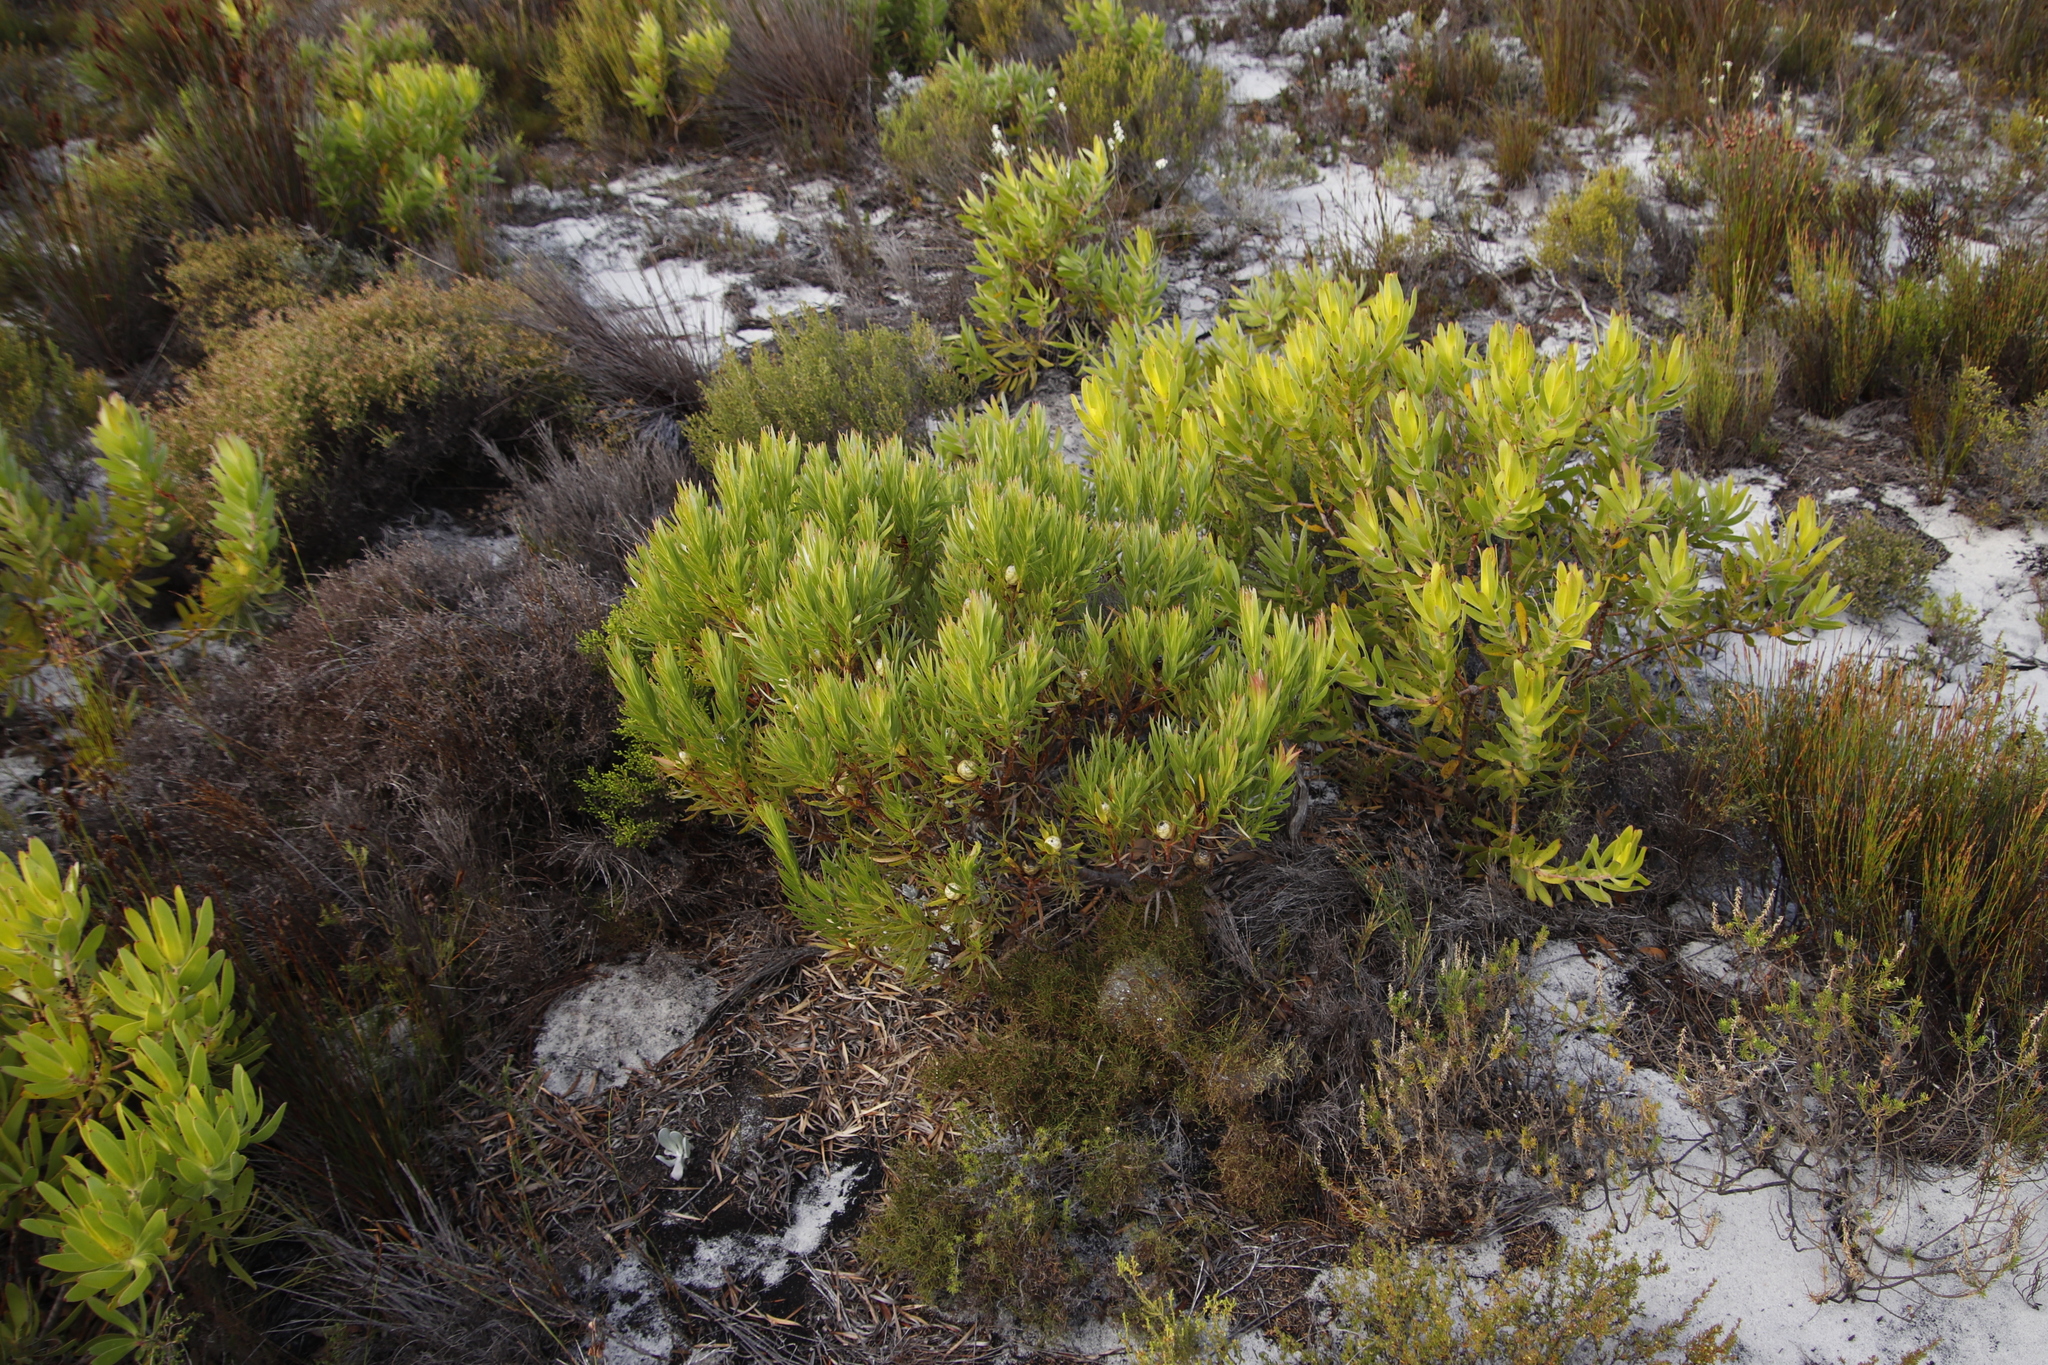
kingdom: Plantae
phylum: Tracheophyta
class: Magnoliopsida
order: Proteales
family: Proteaceae
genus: Leucadendron
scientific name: Leucadendron xanthoconus
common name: Sickle-leaf conebush
